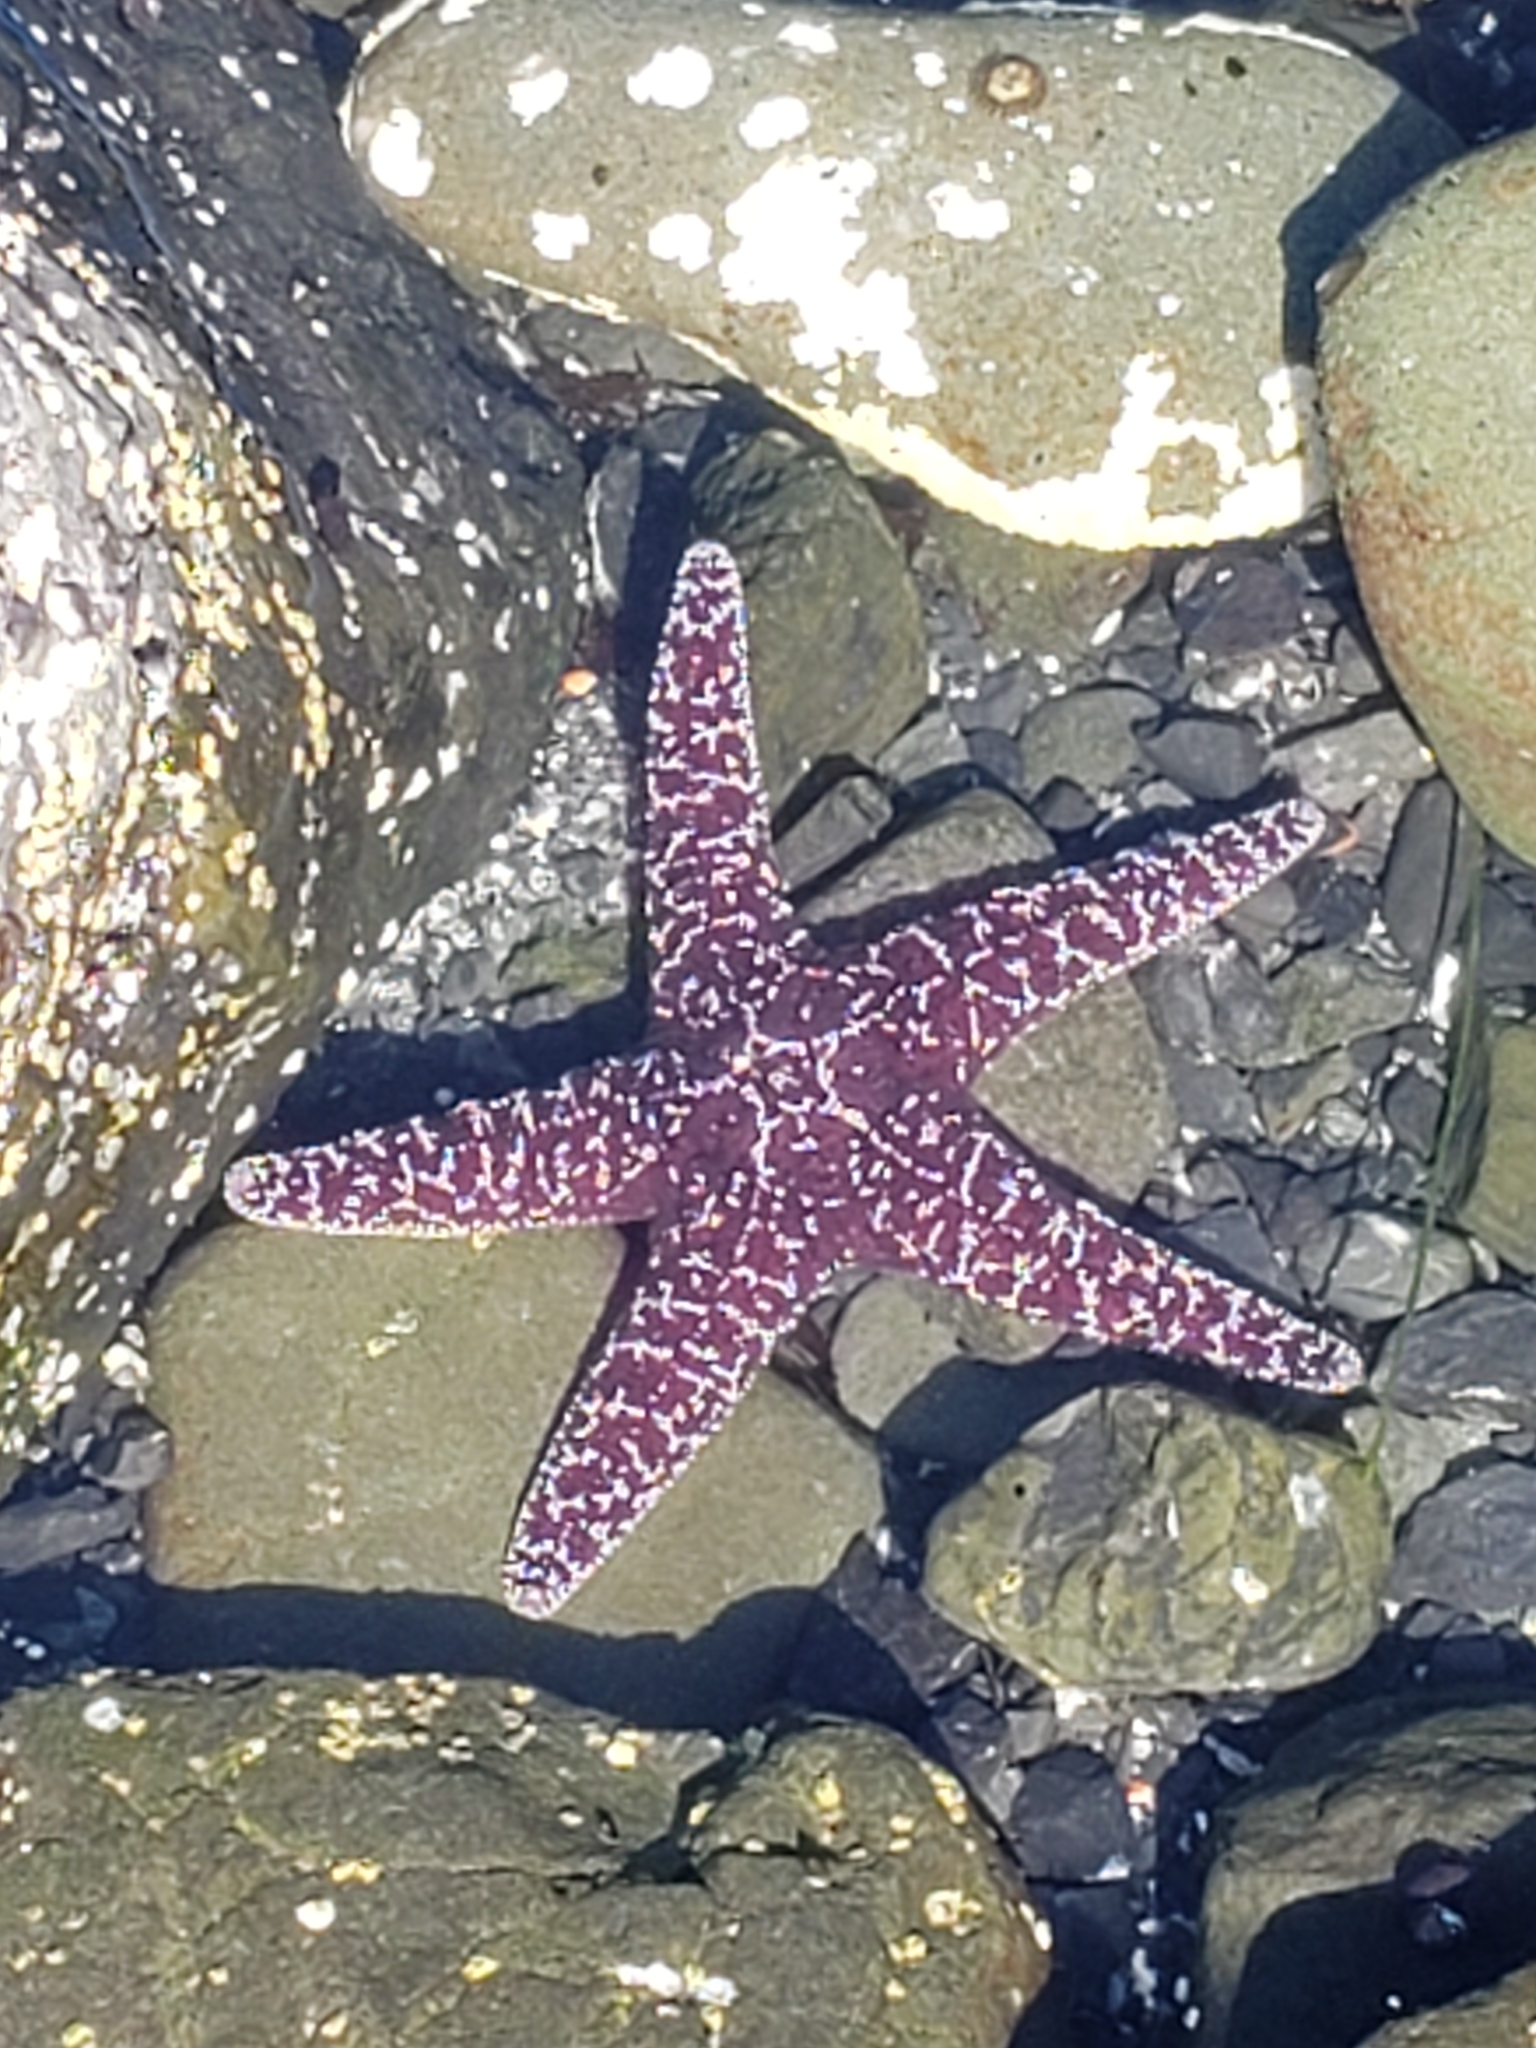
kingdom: Animalia
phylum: Echinodermata
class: Asteroidea
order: Forcipulatida
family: Asteriidae
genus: Pisaster
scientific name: Pisaster ochraceus
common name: Ochre stars
